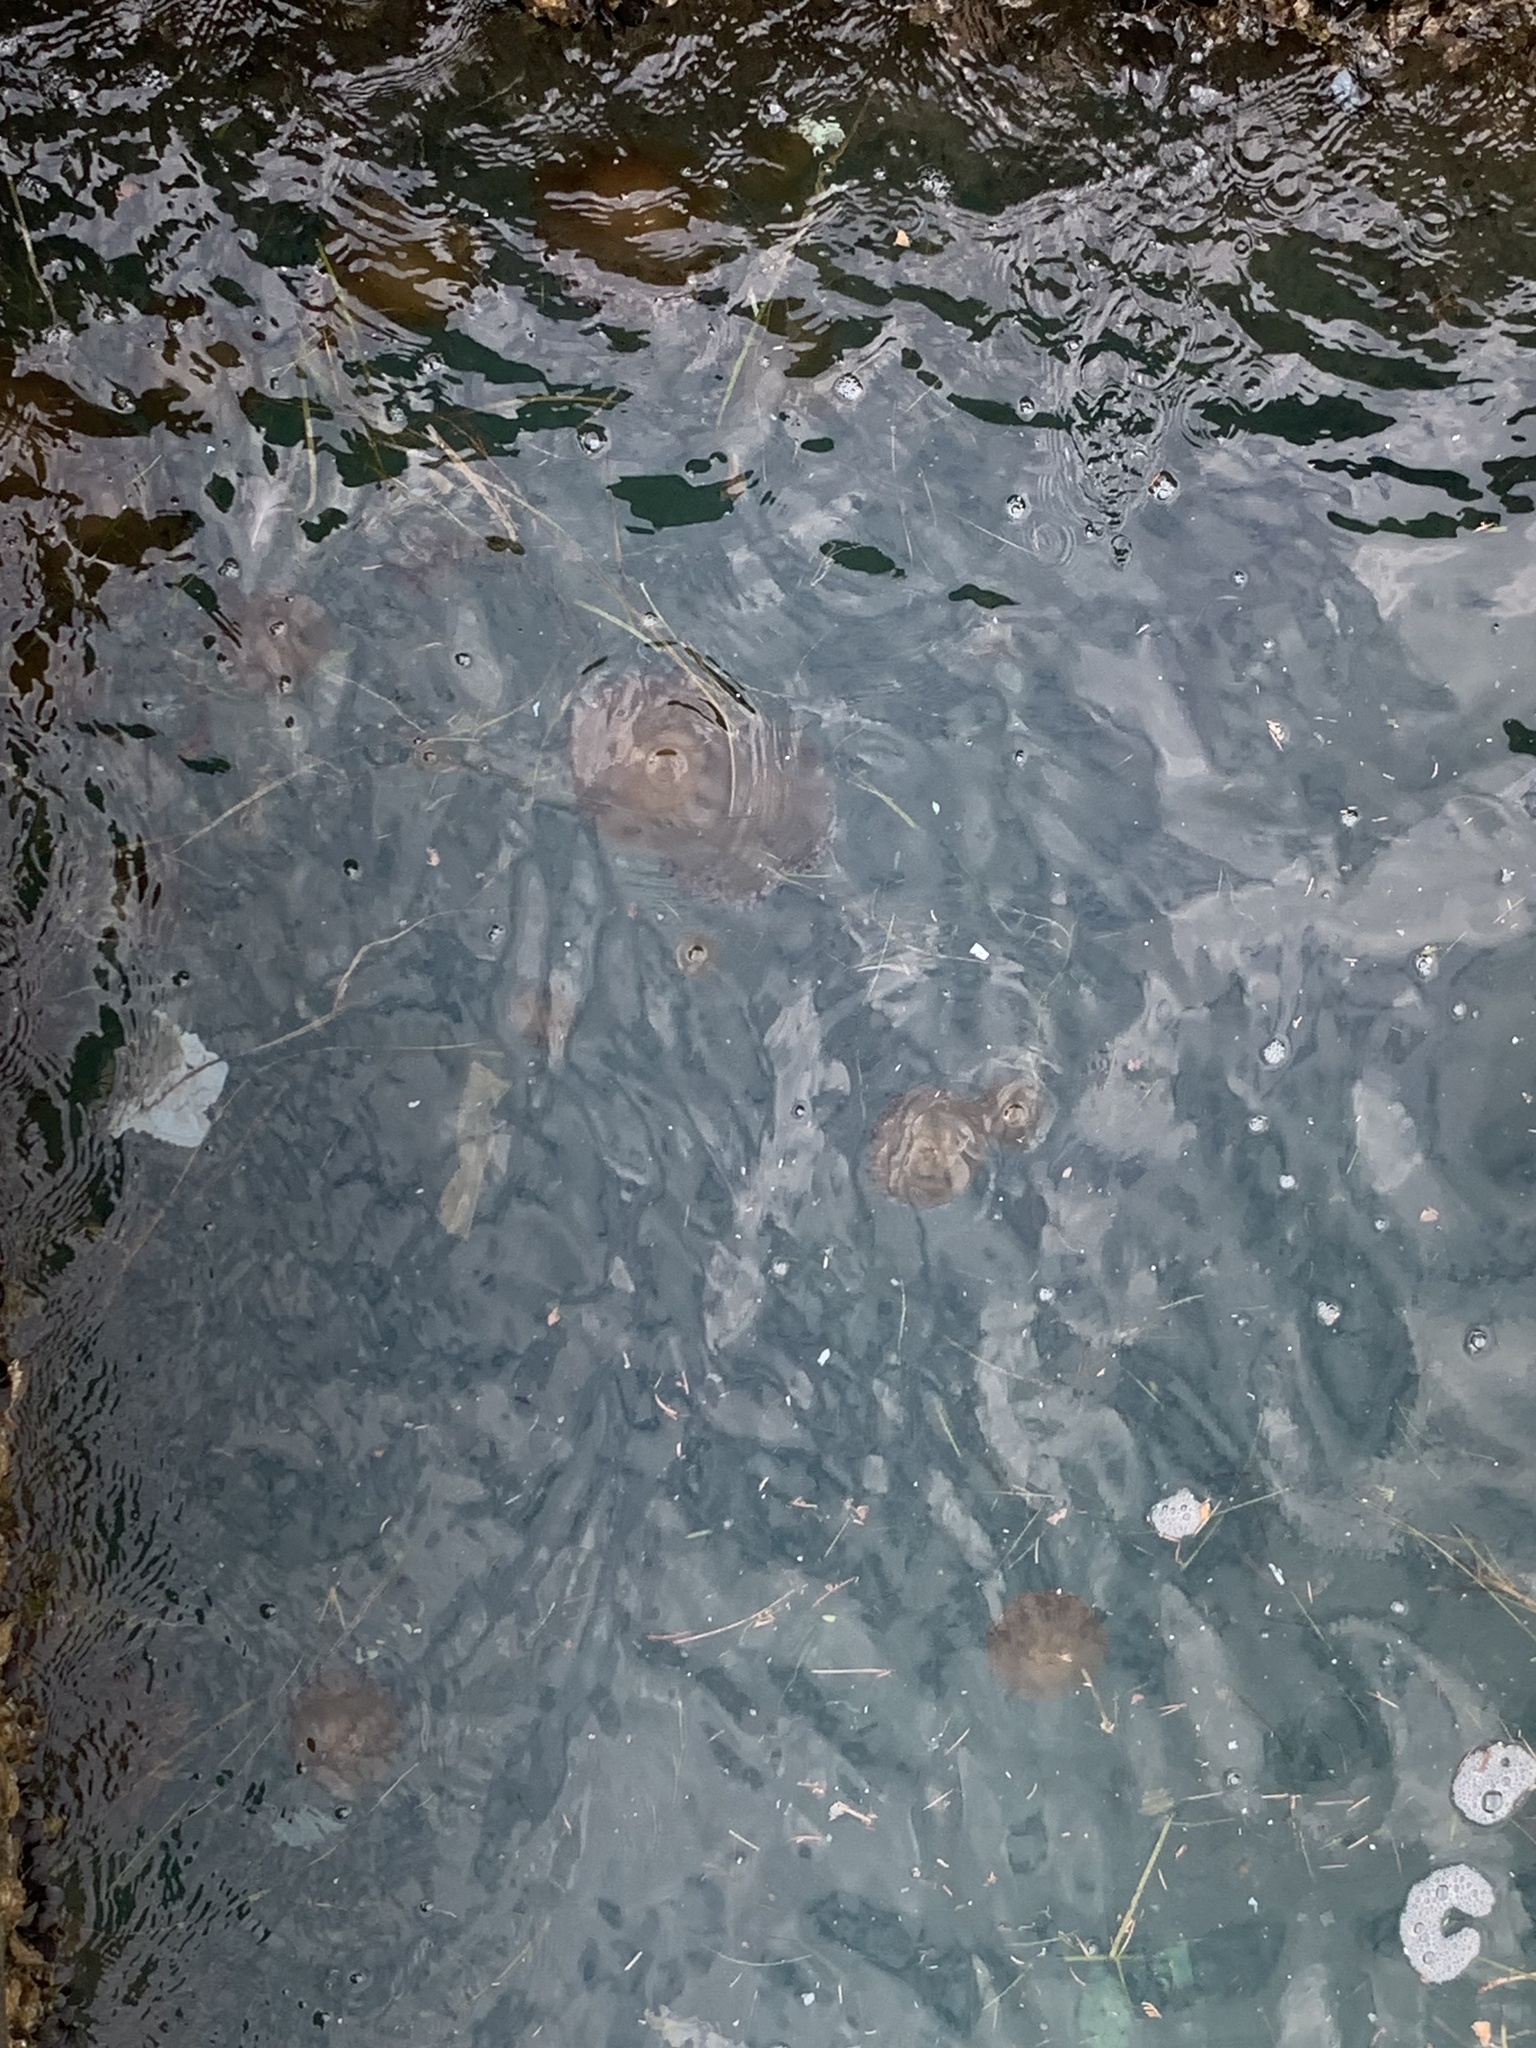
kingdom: Animalia
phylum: Cnidaria
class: Scyphozoa
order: Rhizostomeae
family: Cepheidae
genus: Cotylorhiza
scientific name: Cotylorhiza tuberculata
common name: Mediterranean jelly
